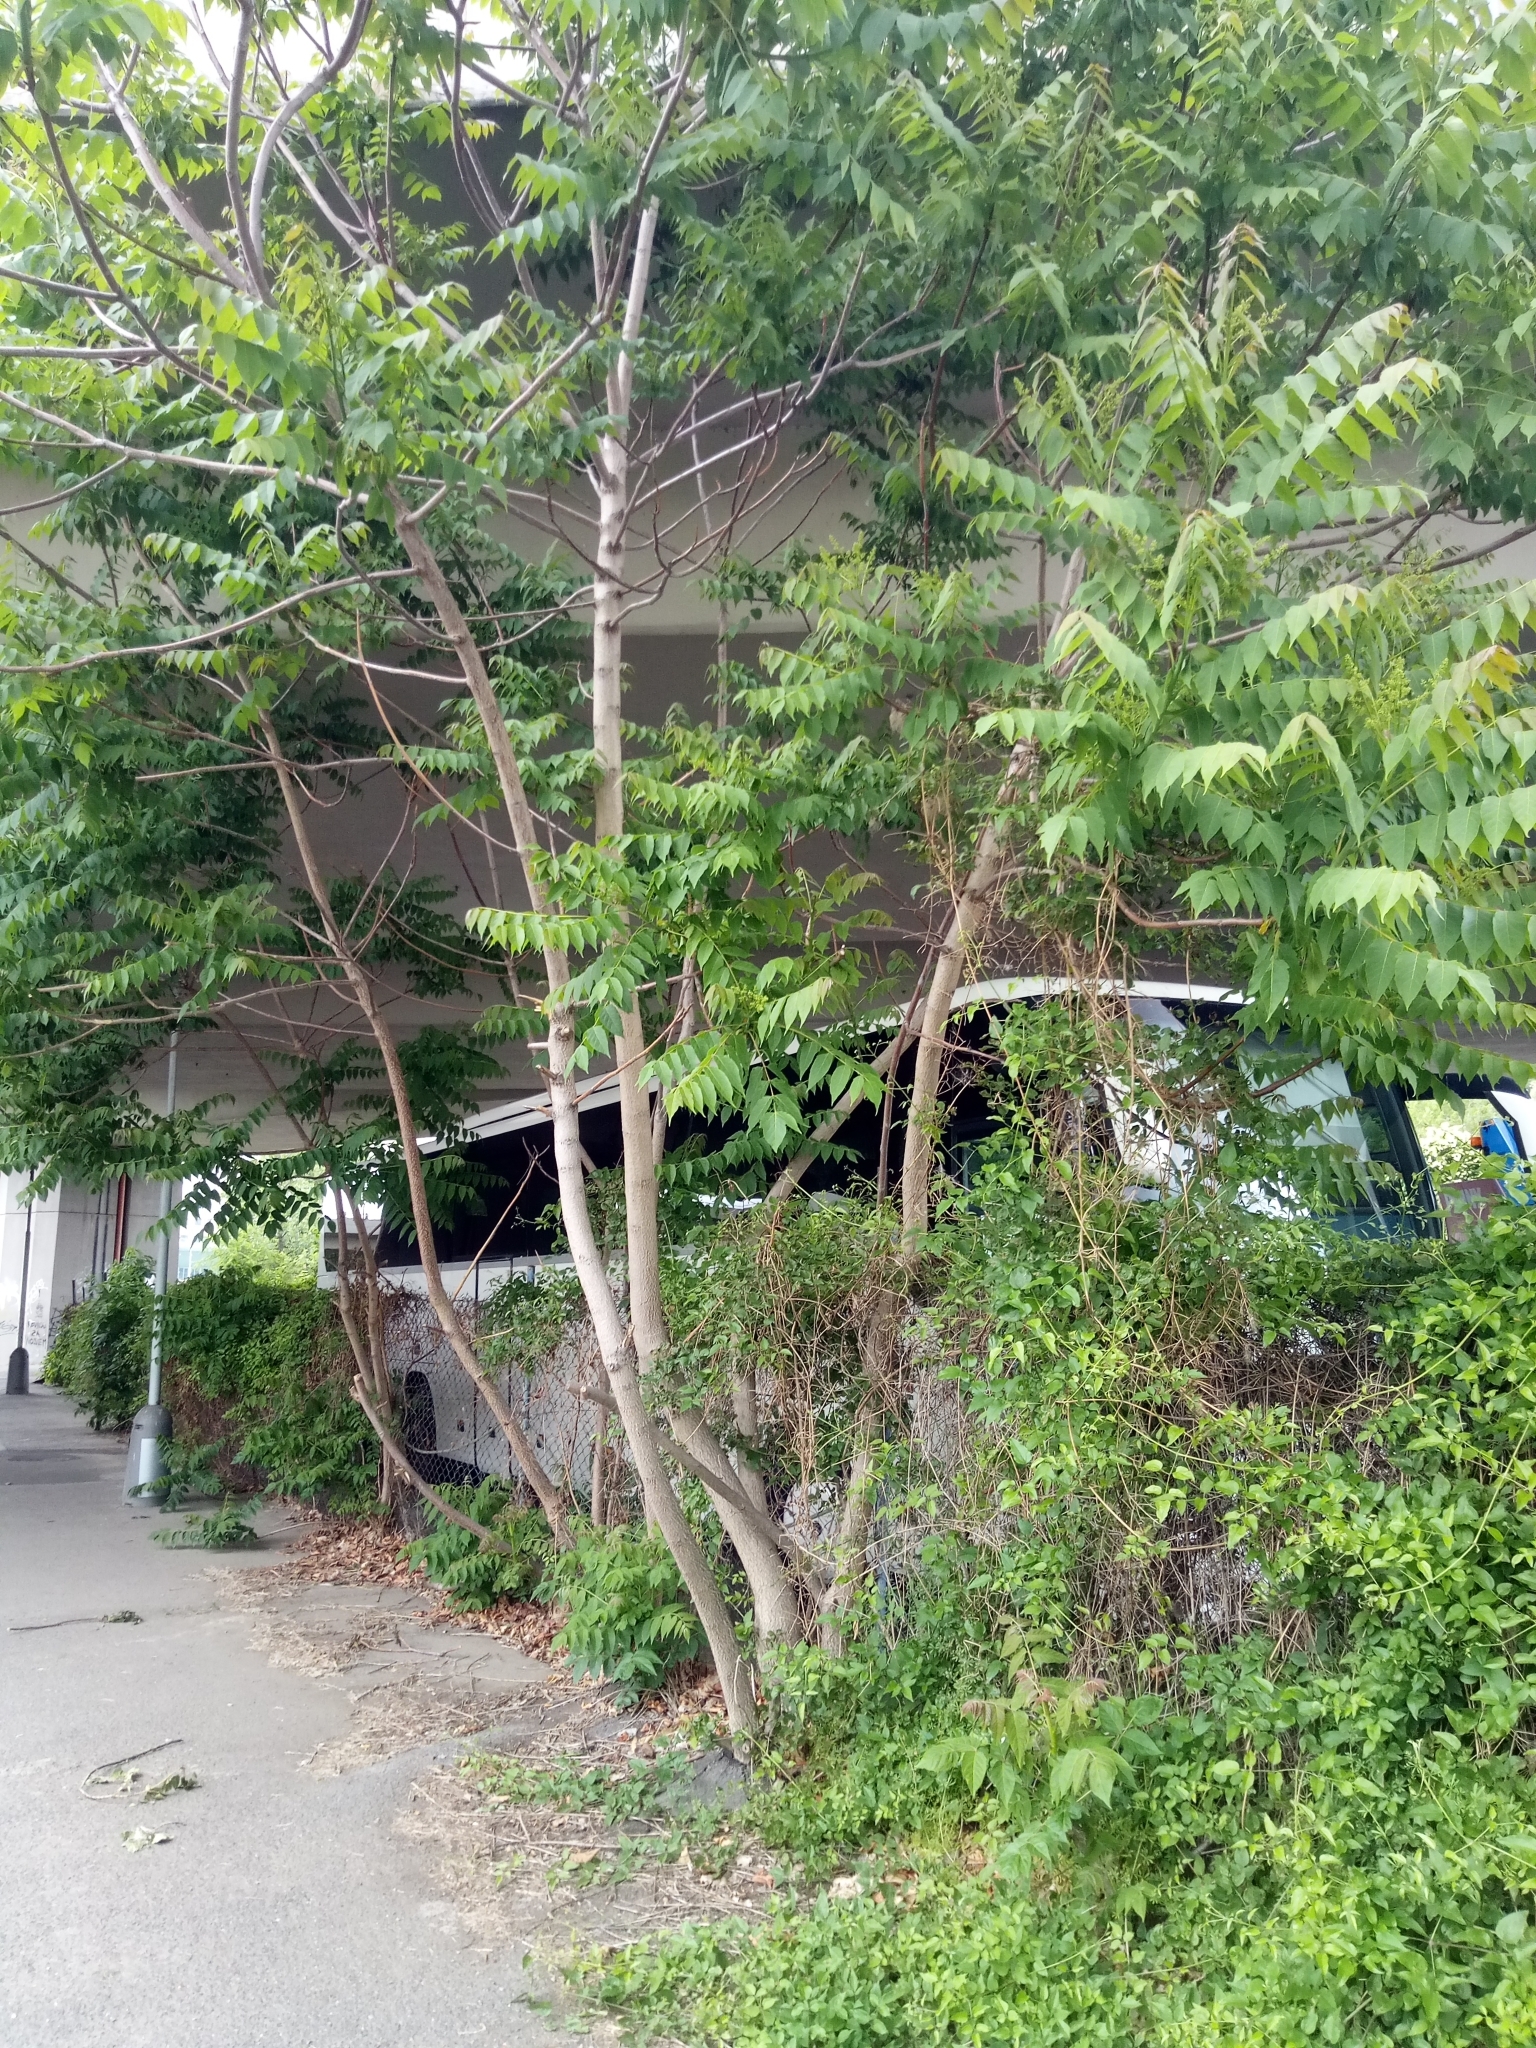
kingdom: Plantae
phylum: Tracheophyta
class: Magnoliopsida
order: Sapindales
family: Simaroubaceae
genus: Ailanthus
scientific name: Ailanthus altissima
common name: Tree-of-heaven
